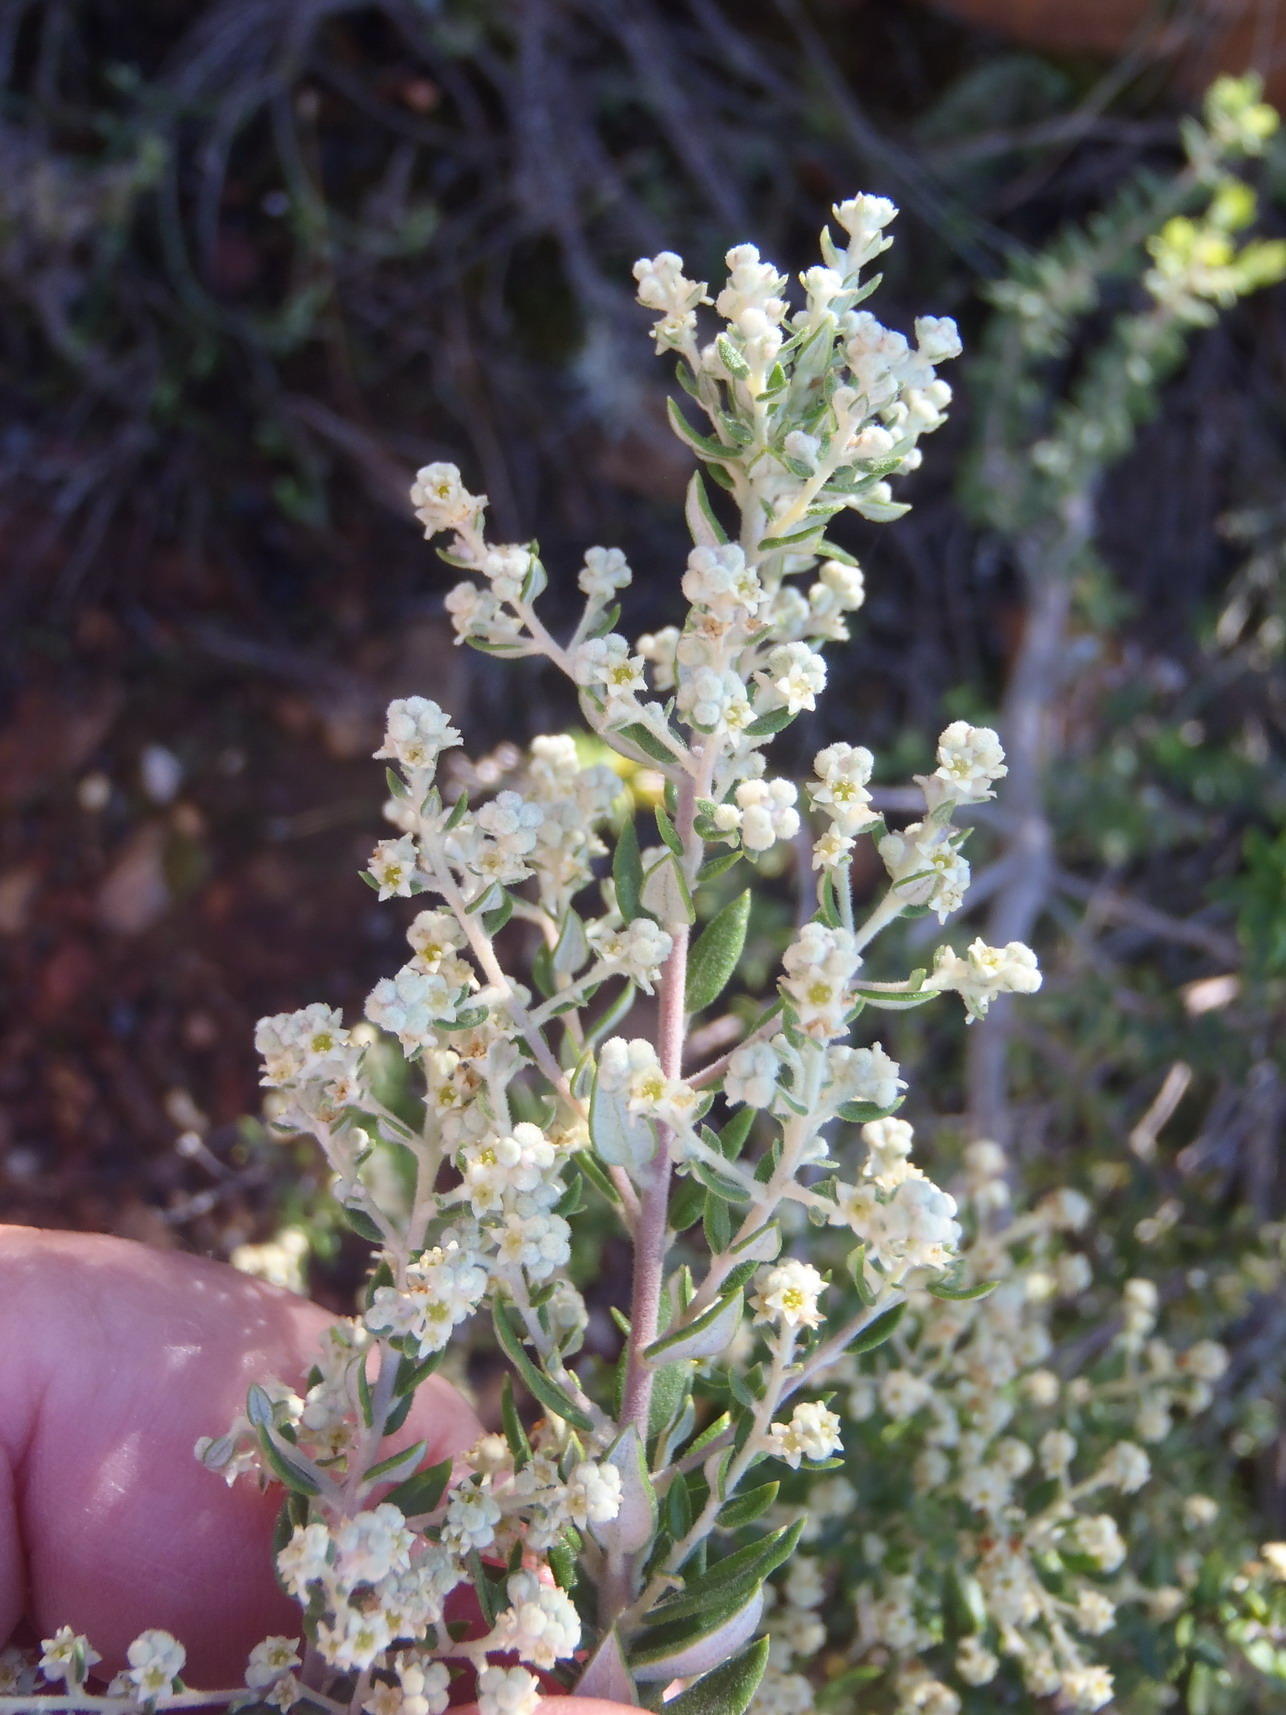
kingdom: Plantae
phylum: Tracheophyta
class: Magnoliopsida
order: Rosales
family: Rhamnaceae
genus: Phylica
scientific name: Phylica paniculata
